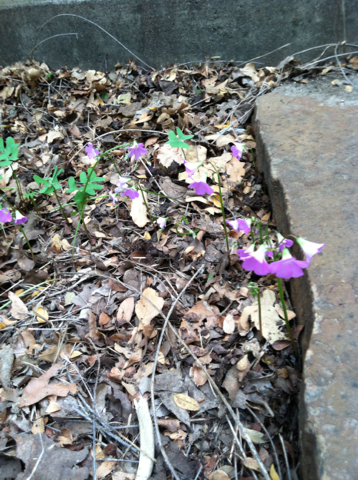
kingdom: Plantae
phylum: Tracheophyta
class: Magnoliopsida
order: Oxalidales
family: Oxalidaceae
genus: Oxalis
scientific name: Oxalis drummondii
